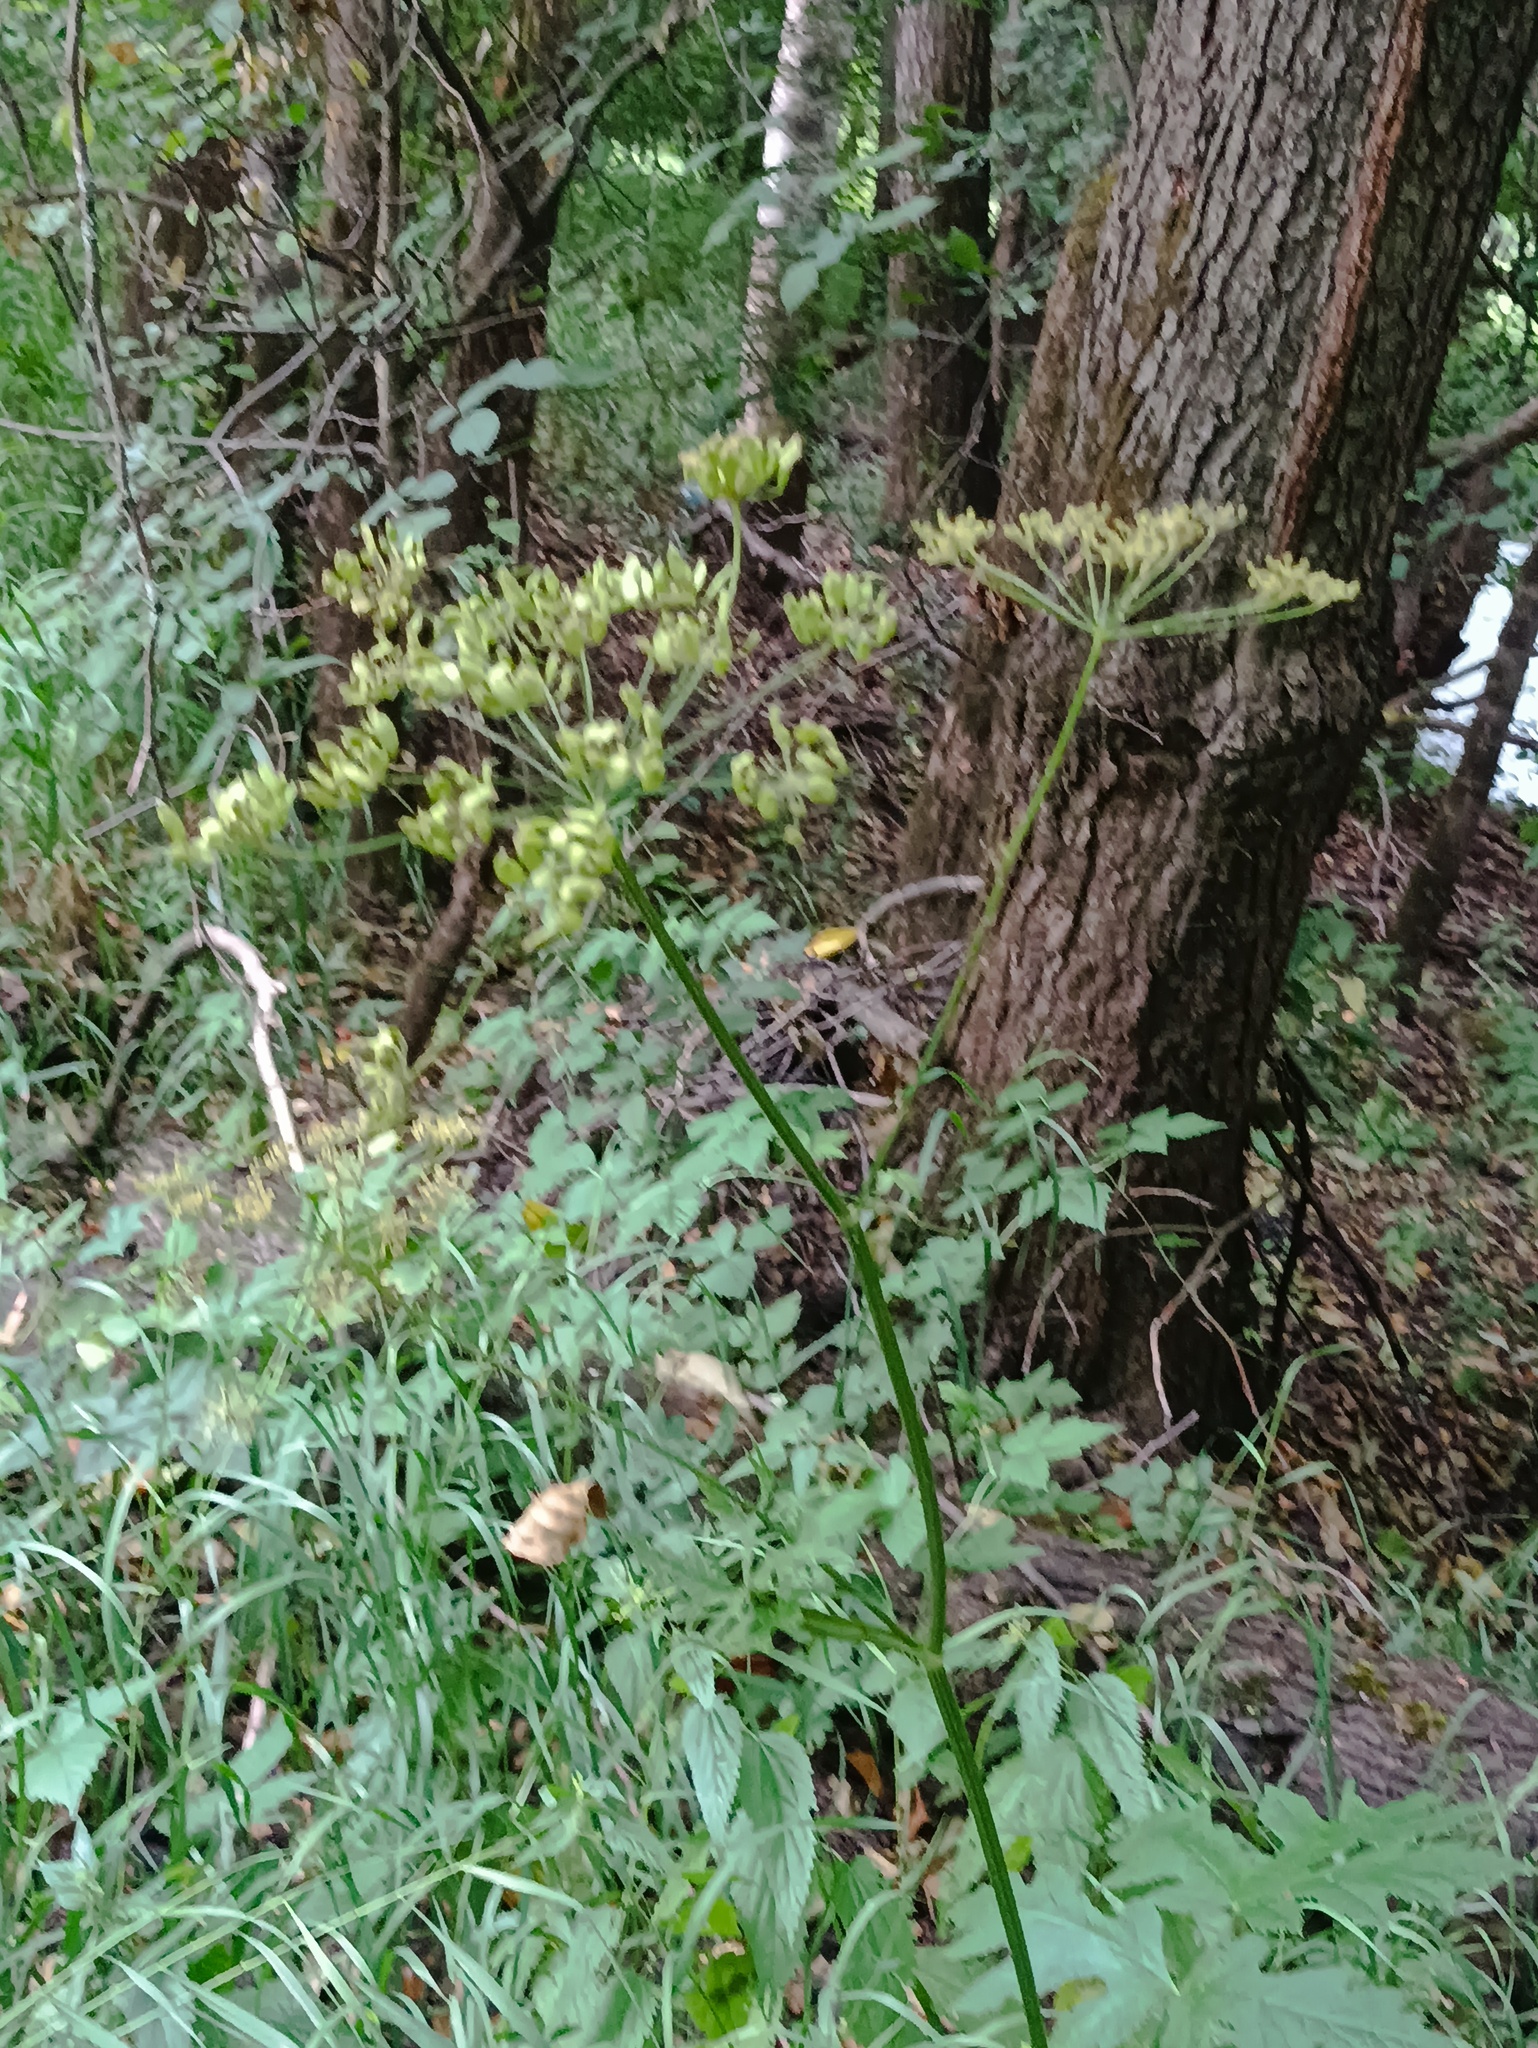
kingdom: Plantae
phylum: Tracheophyta
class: Magnoliopsida
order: Apiales
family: Apiaceae
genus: Heracleum
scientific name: Heracleum sphondylium
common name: Hogweed
